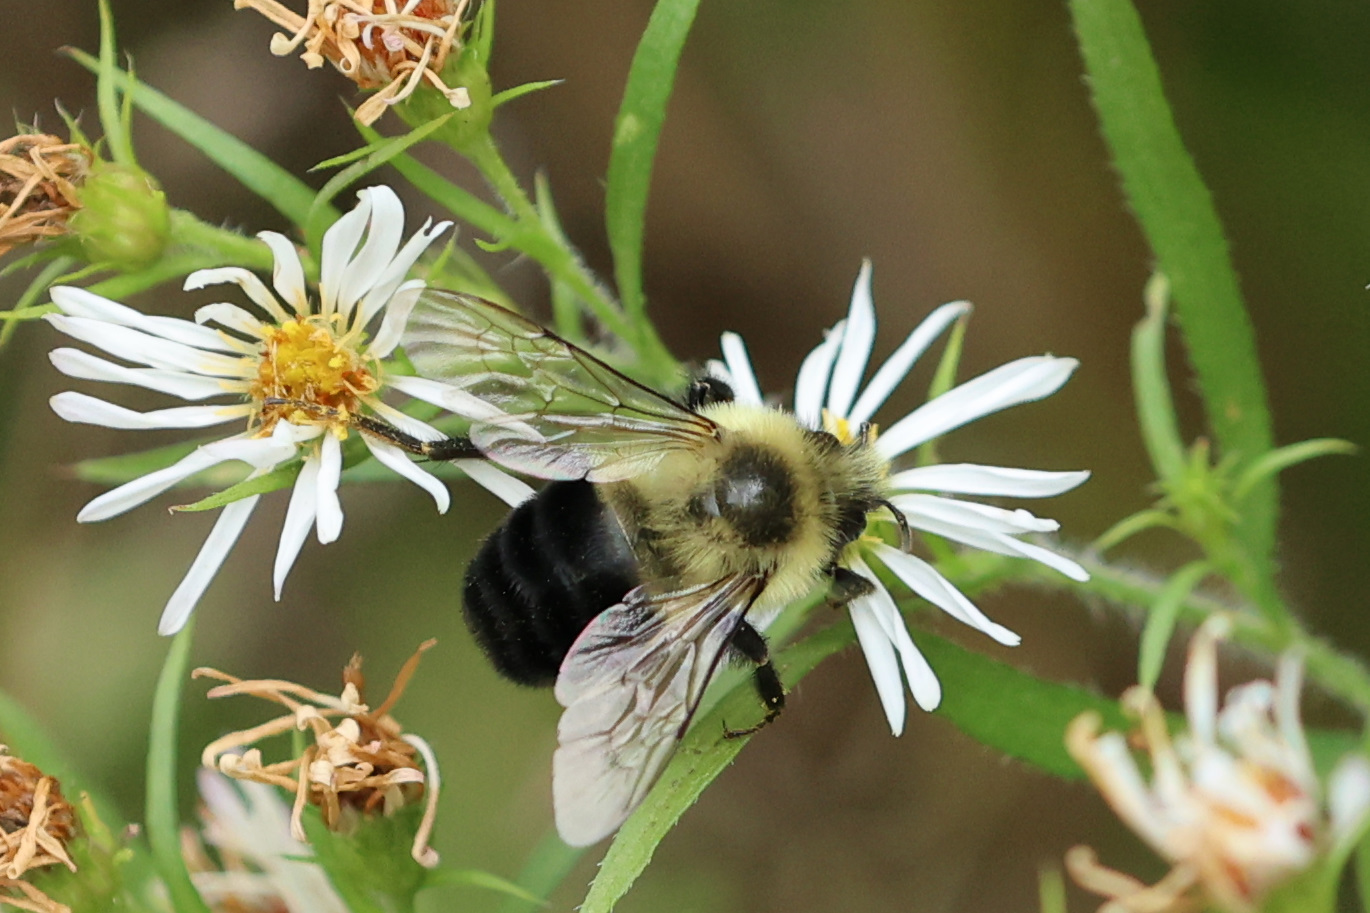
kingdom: Animalia
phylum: Arthropoda
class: Insecta
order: Hymenoptera
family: Apidae
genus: Bombus
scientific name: Bombus impatiens
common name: Common eastern bumble bee
